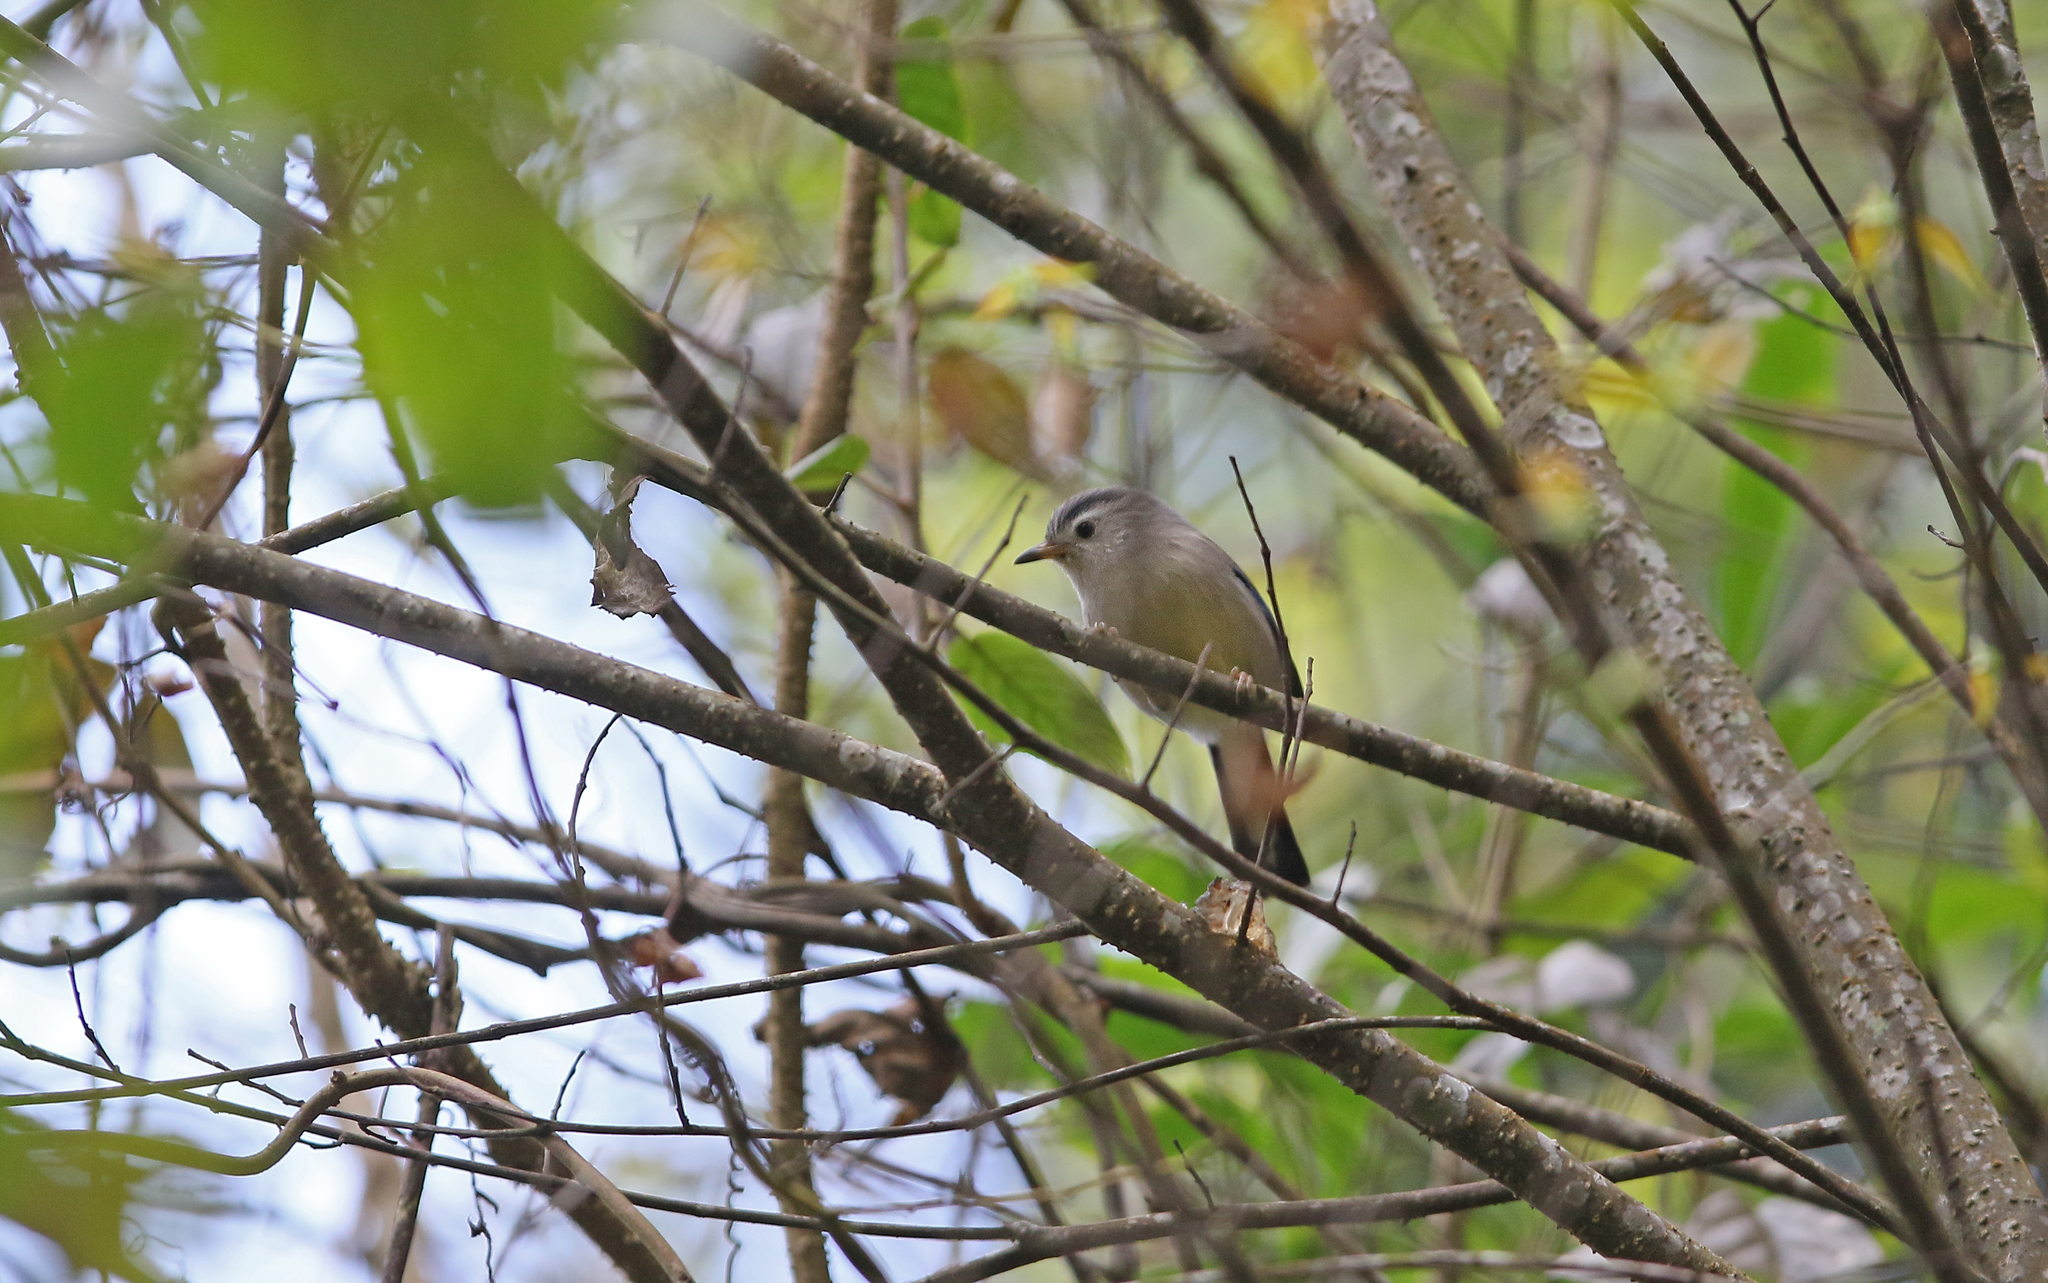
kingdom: Animalia
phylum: Chordata
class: Aves
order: Passeriformes
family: Leiothrichidae
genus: Minla
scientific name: Minla cyanouroptera
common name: Blue-winged minla
